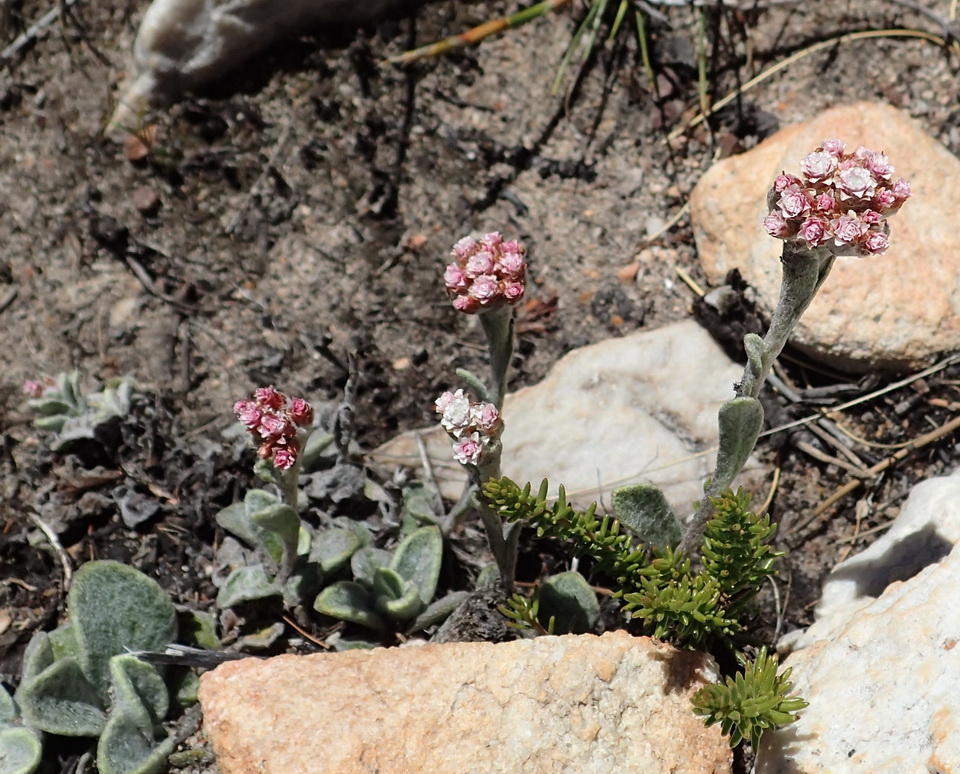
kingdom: Plantae
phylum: Tracheophyta
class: Magnoliopsida
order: Asterales
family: Asteraceae
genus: Helichrysum
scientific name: Helichrysum rotundifolium
